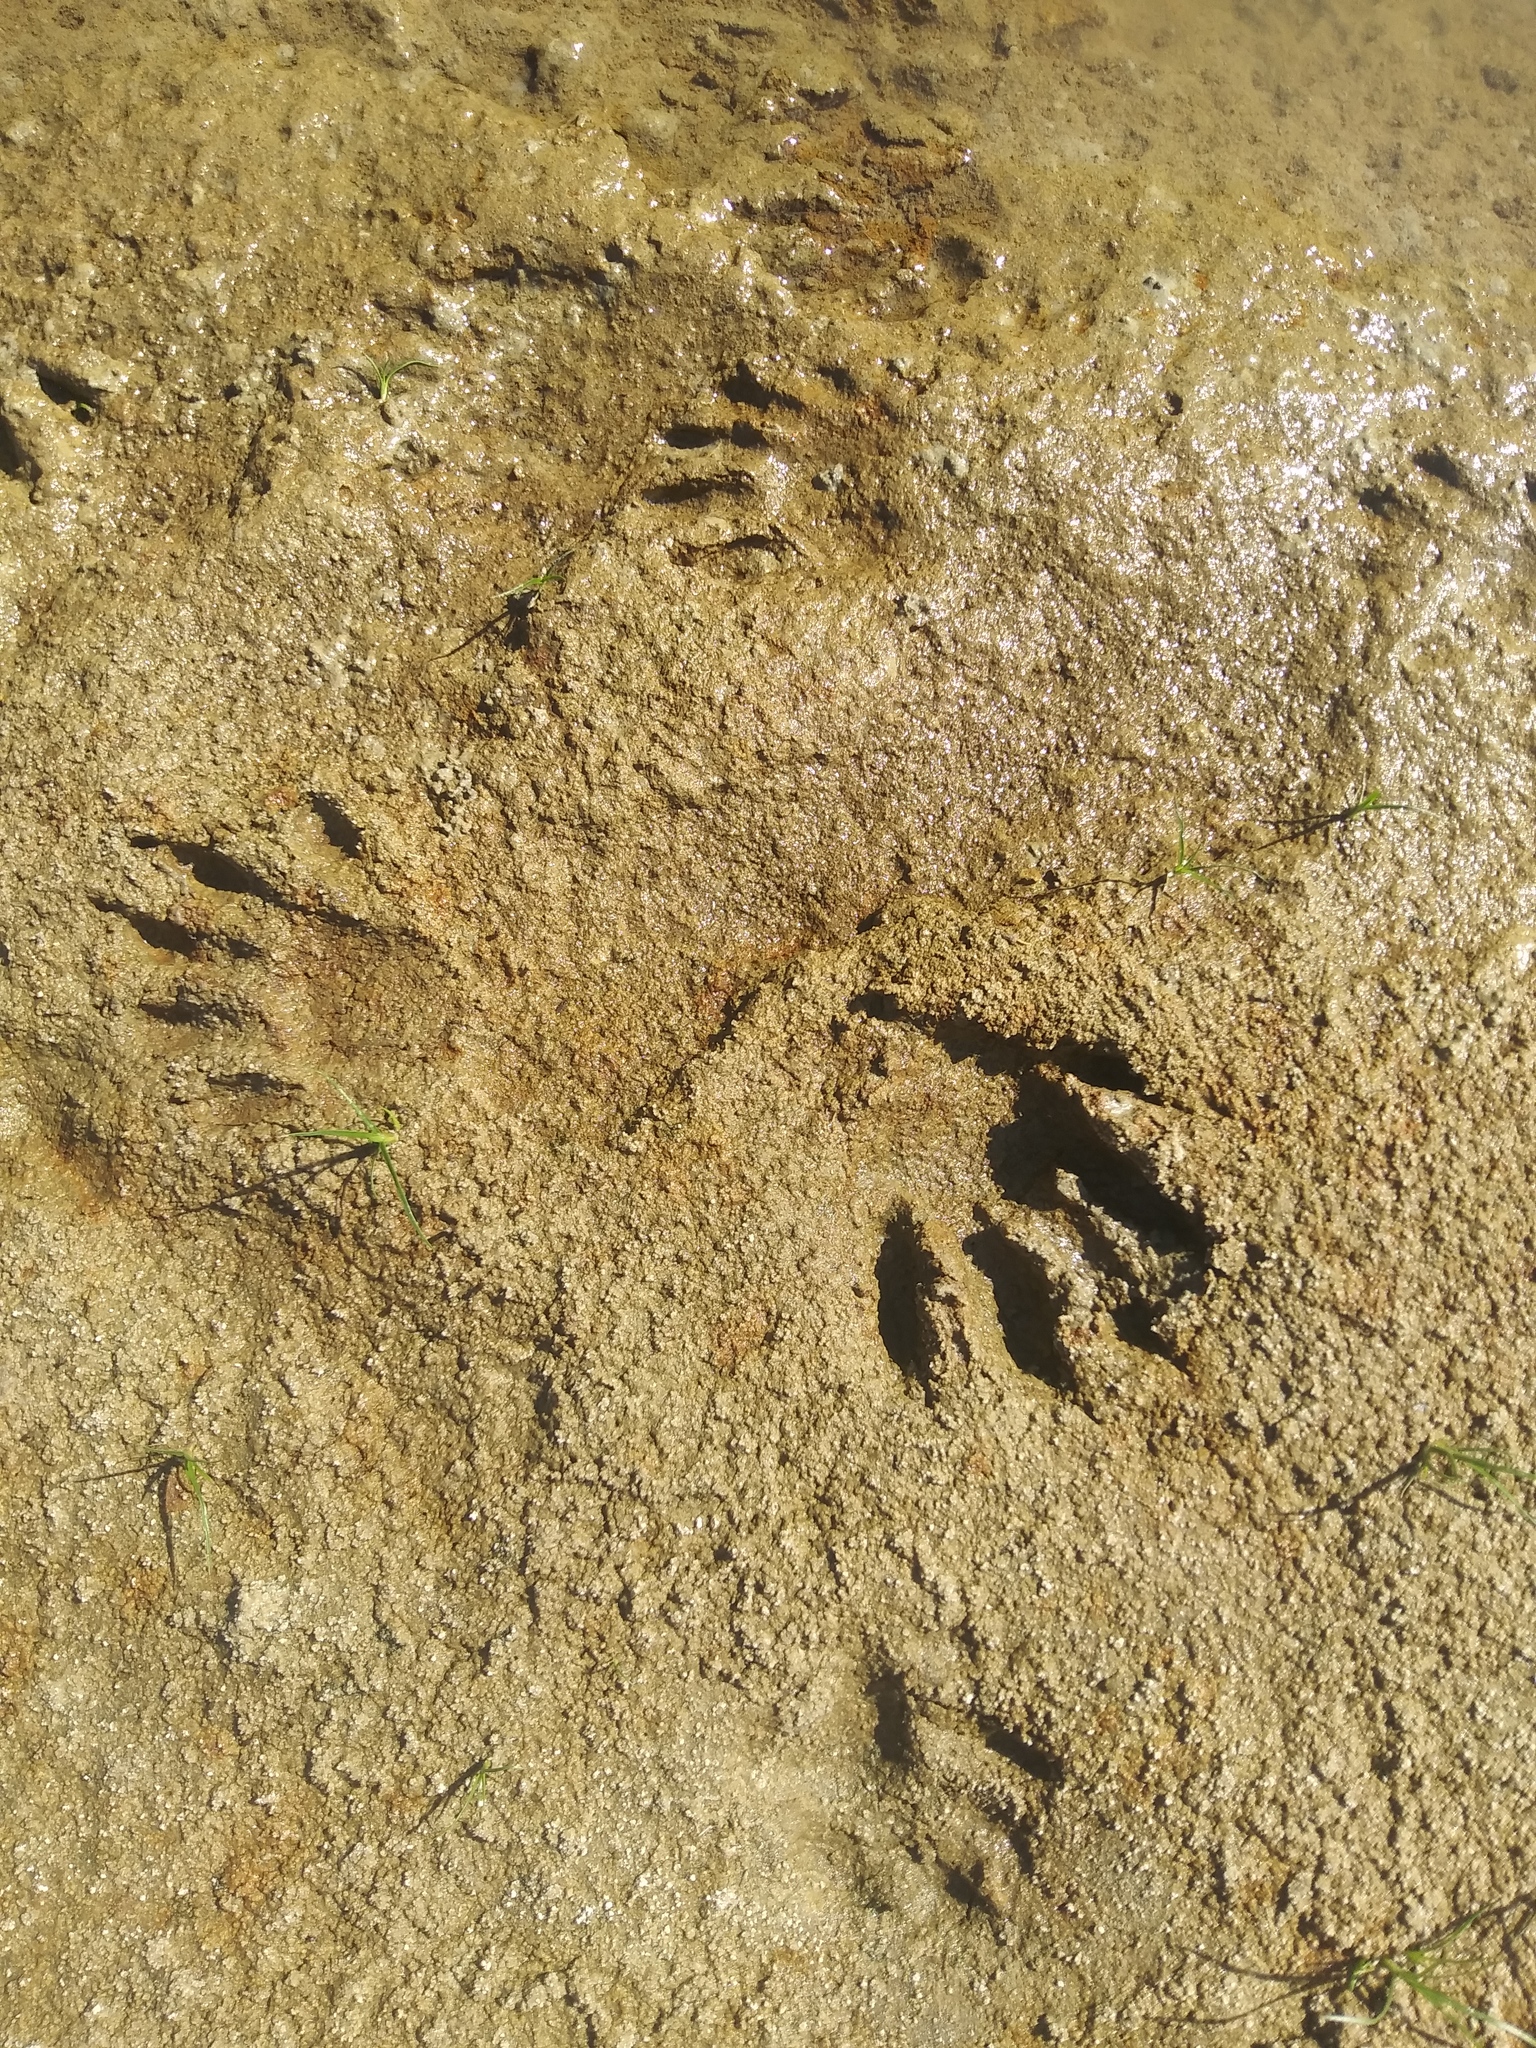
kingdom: Animalia
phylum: Chordata
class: Mammalia
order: Carnivora
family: Procyonidae
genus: Procyon
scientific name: Procyon lotor
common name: Raccoon
